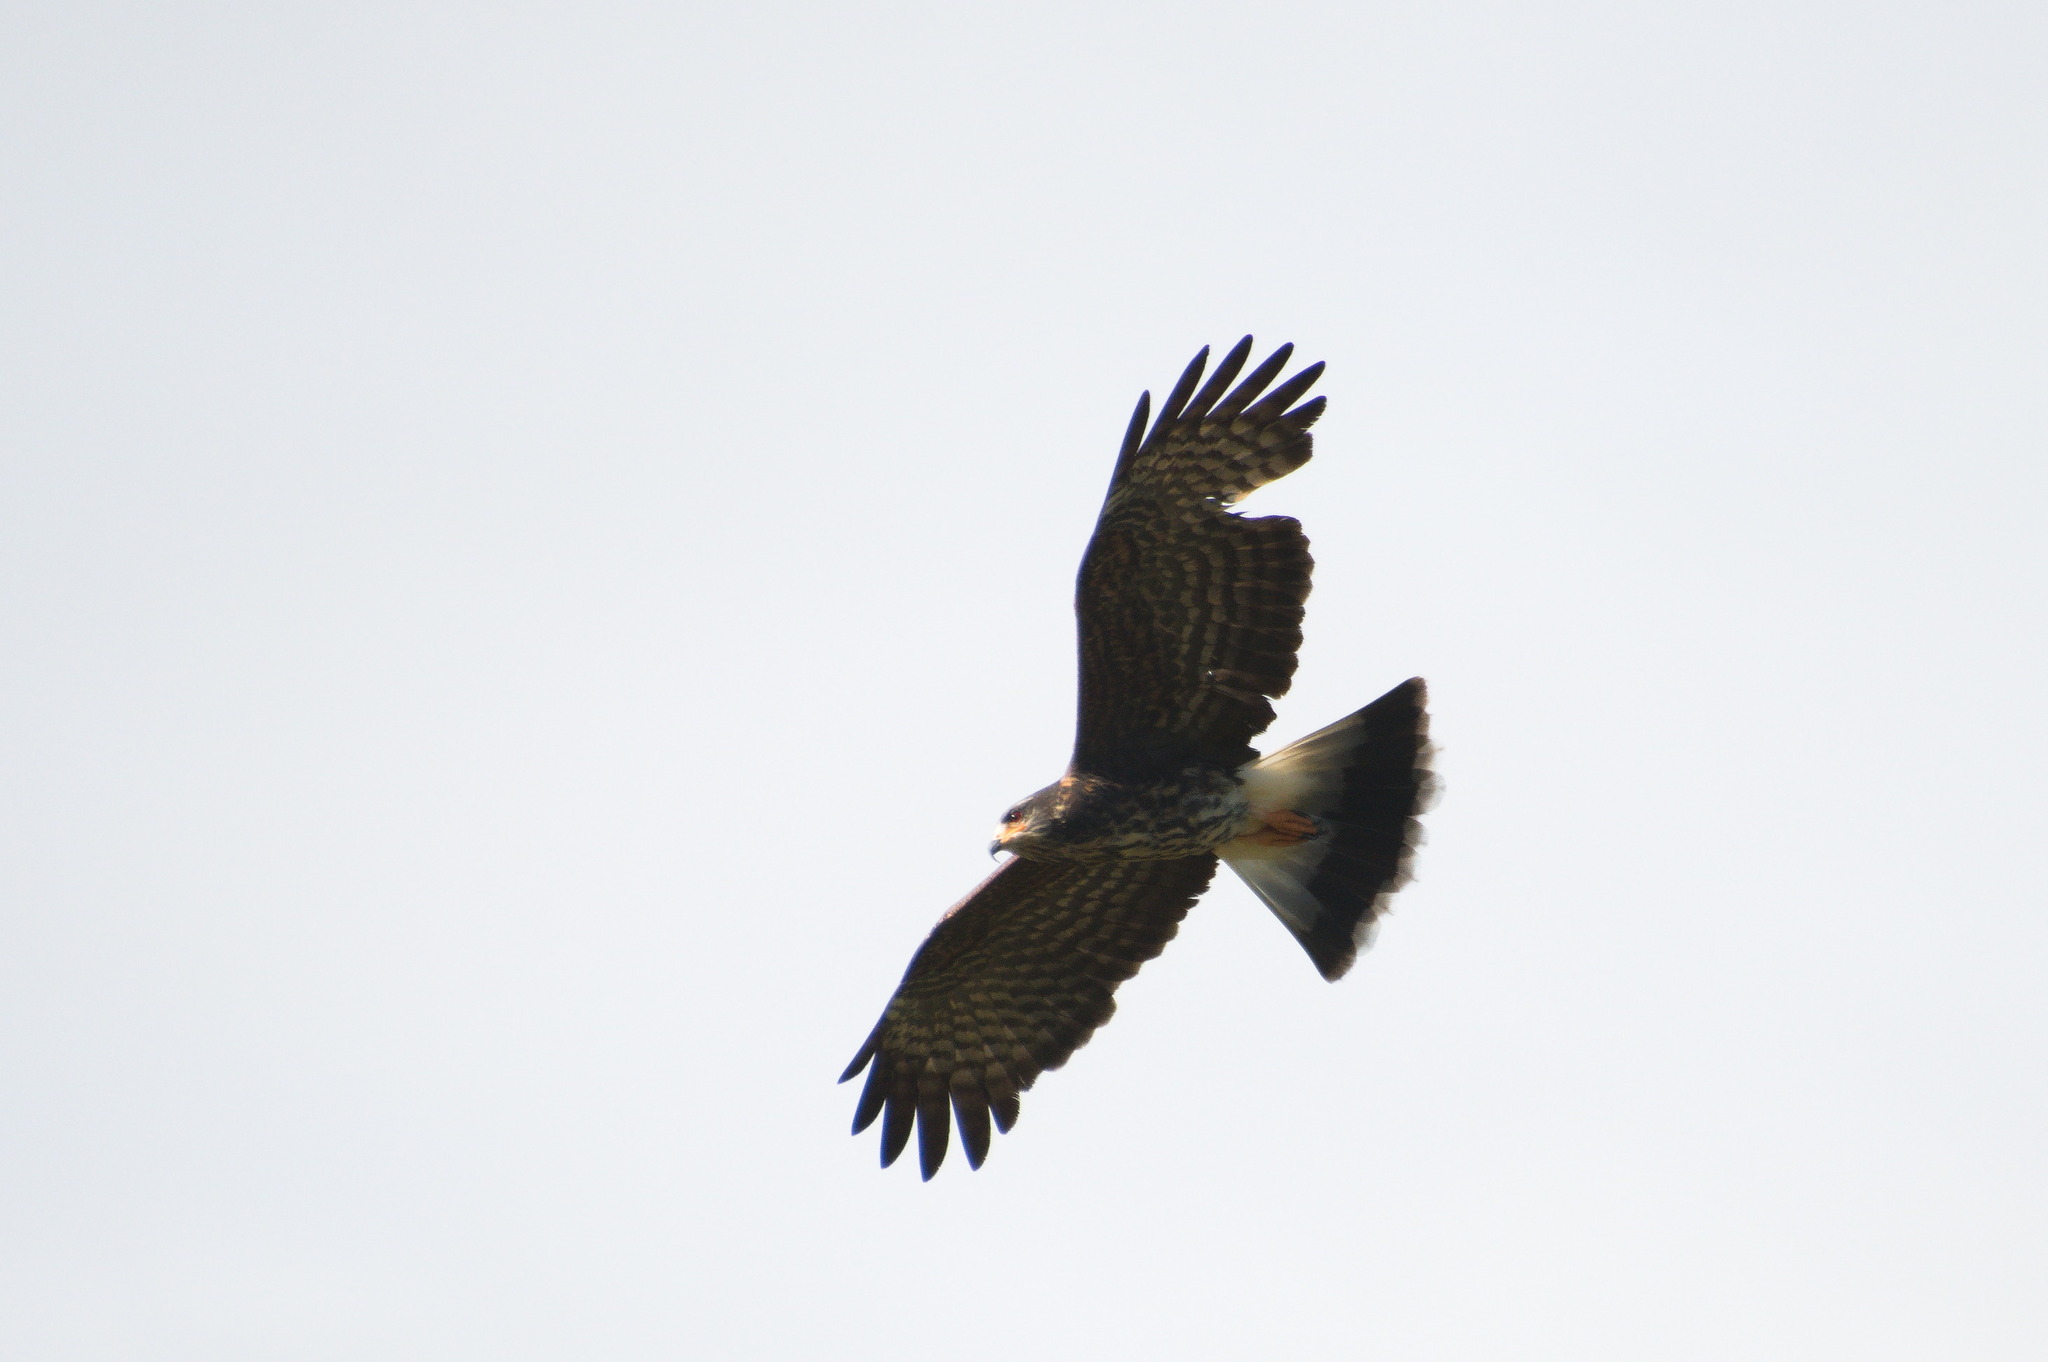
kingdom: Animalia
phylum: Chordata
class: Aves
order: Accipitriformes
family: Accipitridae
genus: Rostrhamus
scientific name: Rostrhamus sociabilis
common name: Snail kite
